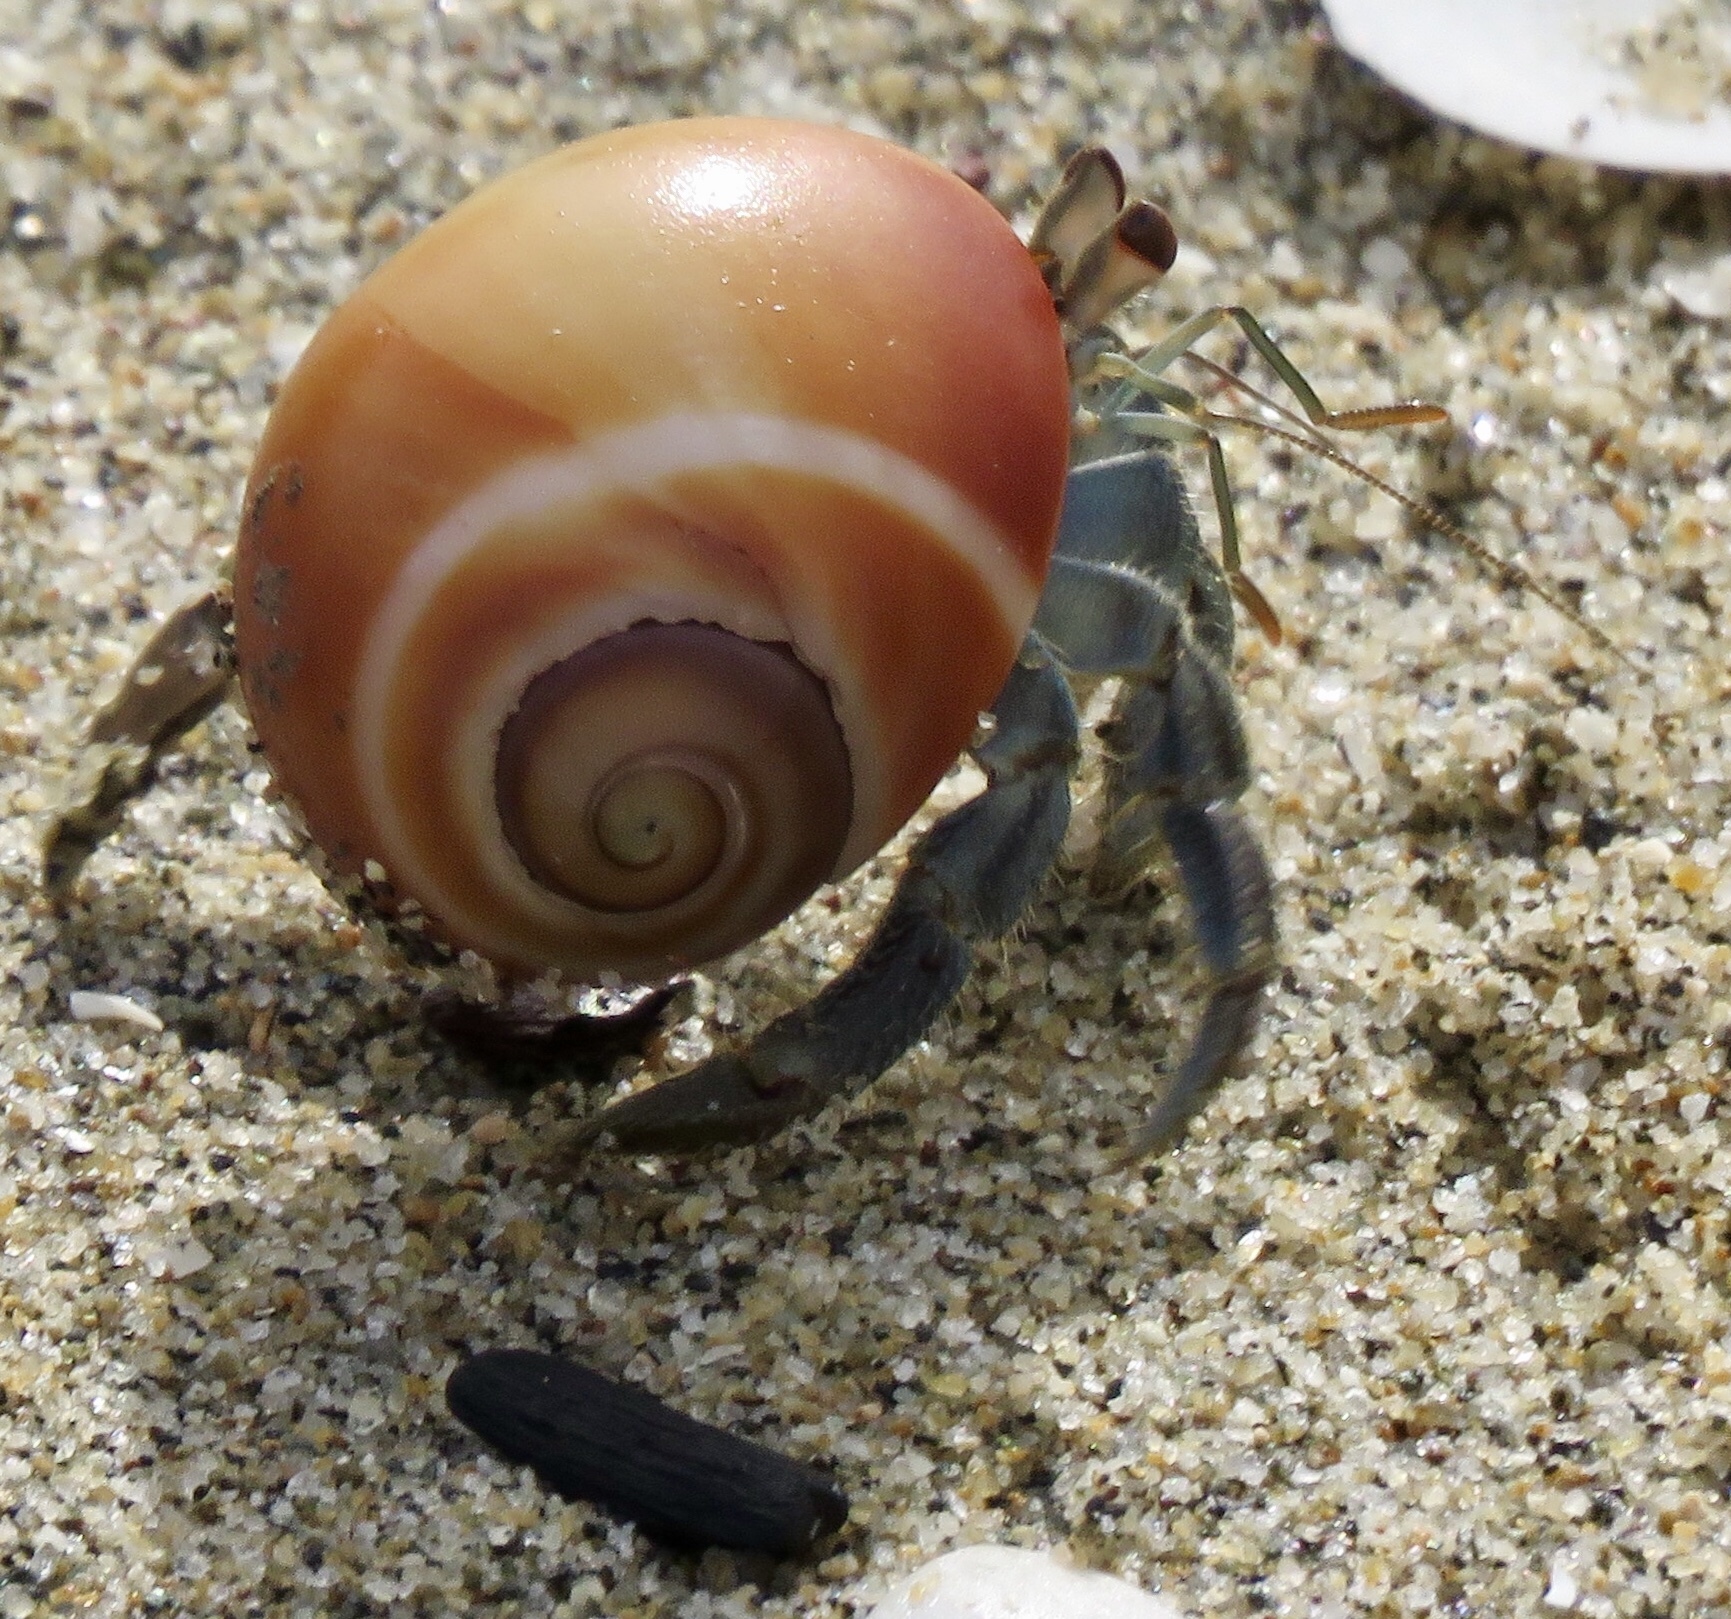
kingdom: Animalia
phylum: Arthropoda
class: Malacostraca
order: Decapoda
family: Coenobitidae
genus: Coenobita
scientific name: Coenobita compressus
